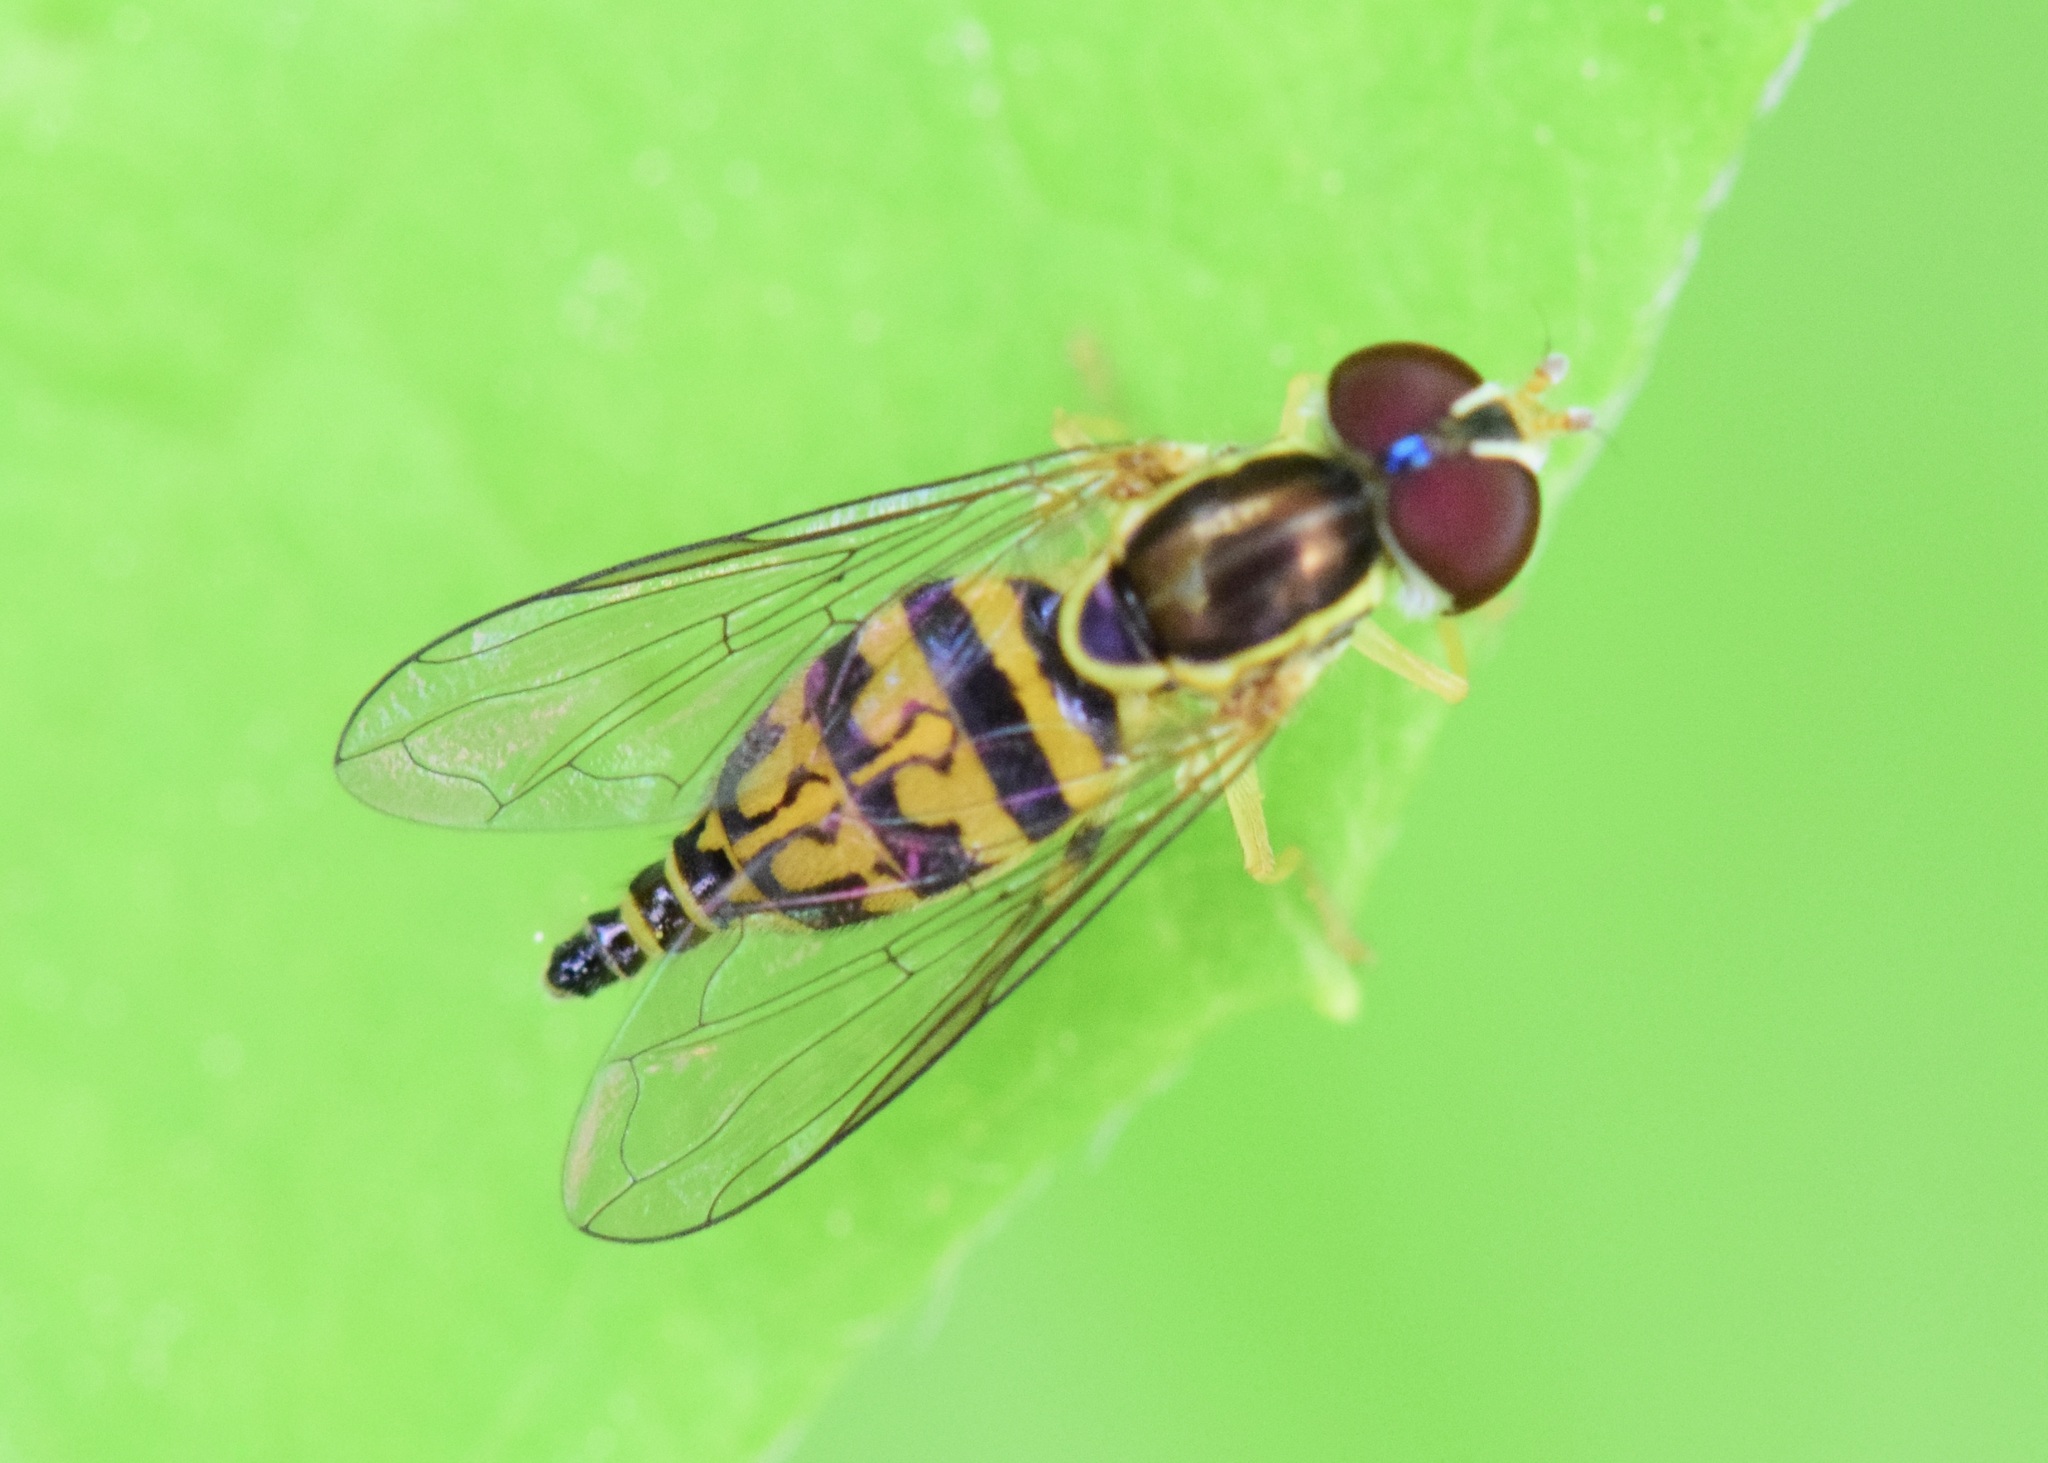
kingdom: Animalia
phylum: Arthropoda
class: Insecta
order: Diptera
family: Syrphidae
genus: Toxomerus
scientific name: Toxomerus geminatus
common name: Eastern calligrapher
